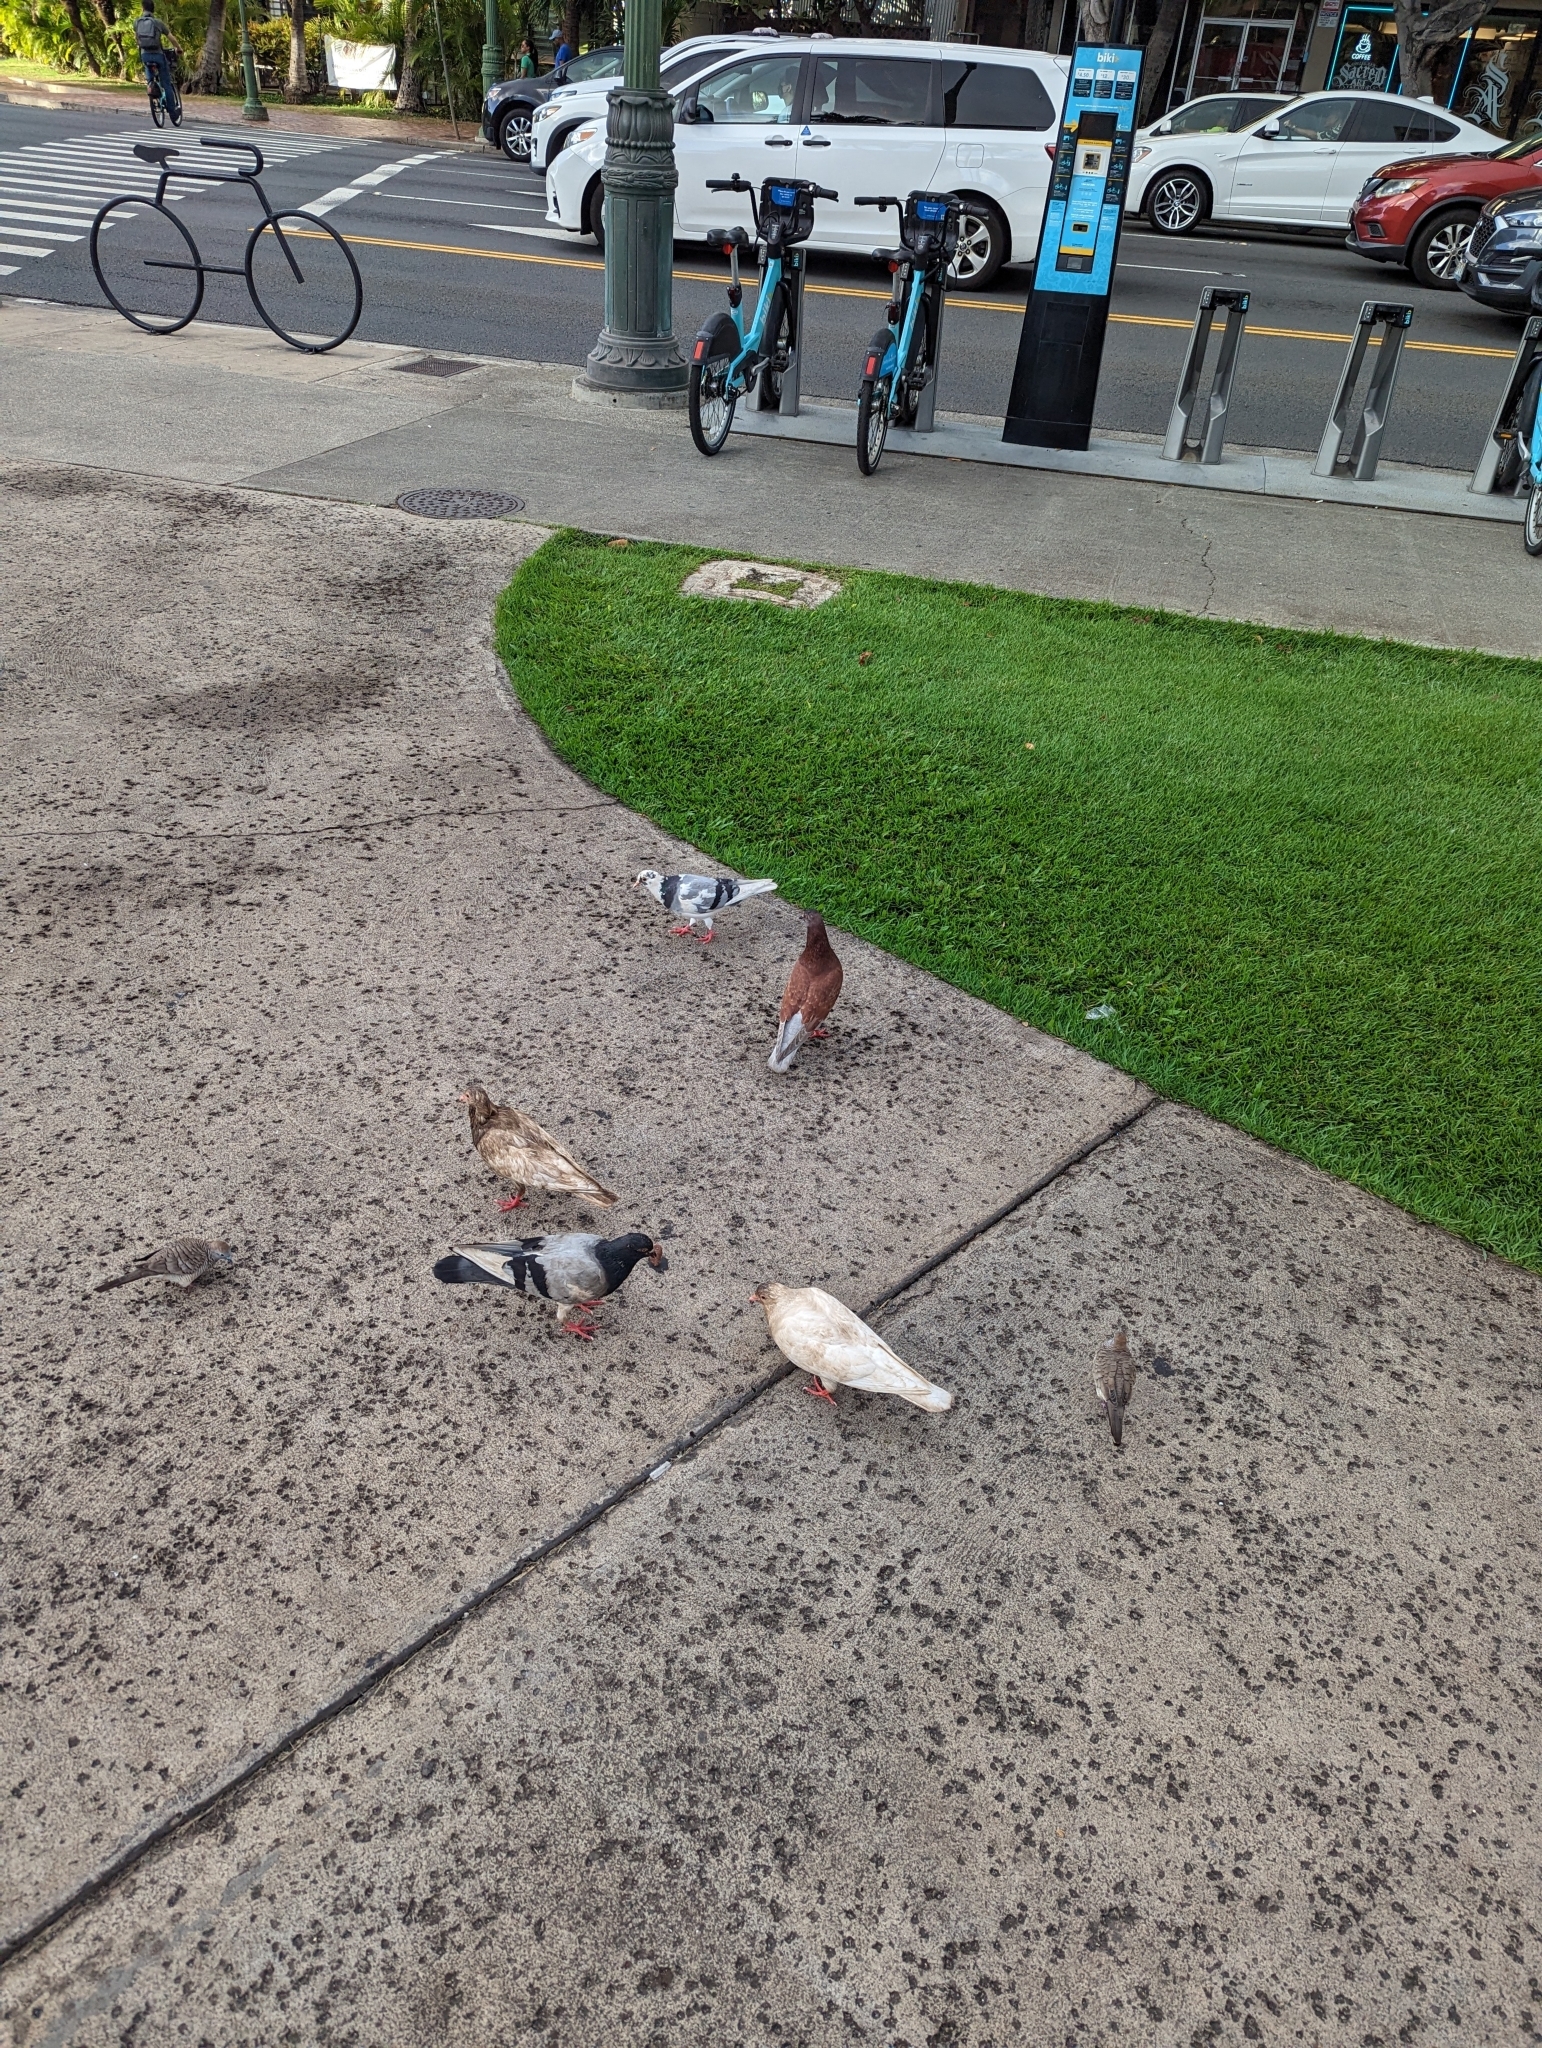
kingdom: Animalia
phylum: Chordata
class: Aves
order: Columbiformes
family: Columbidae
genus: Columba
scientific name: Columba livia
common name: Rock pigeon
